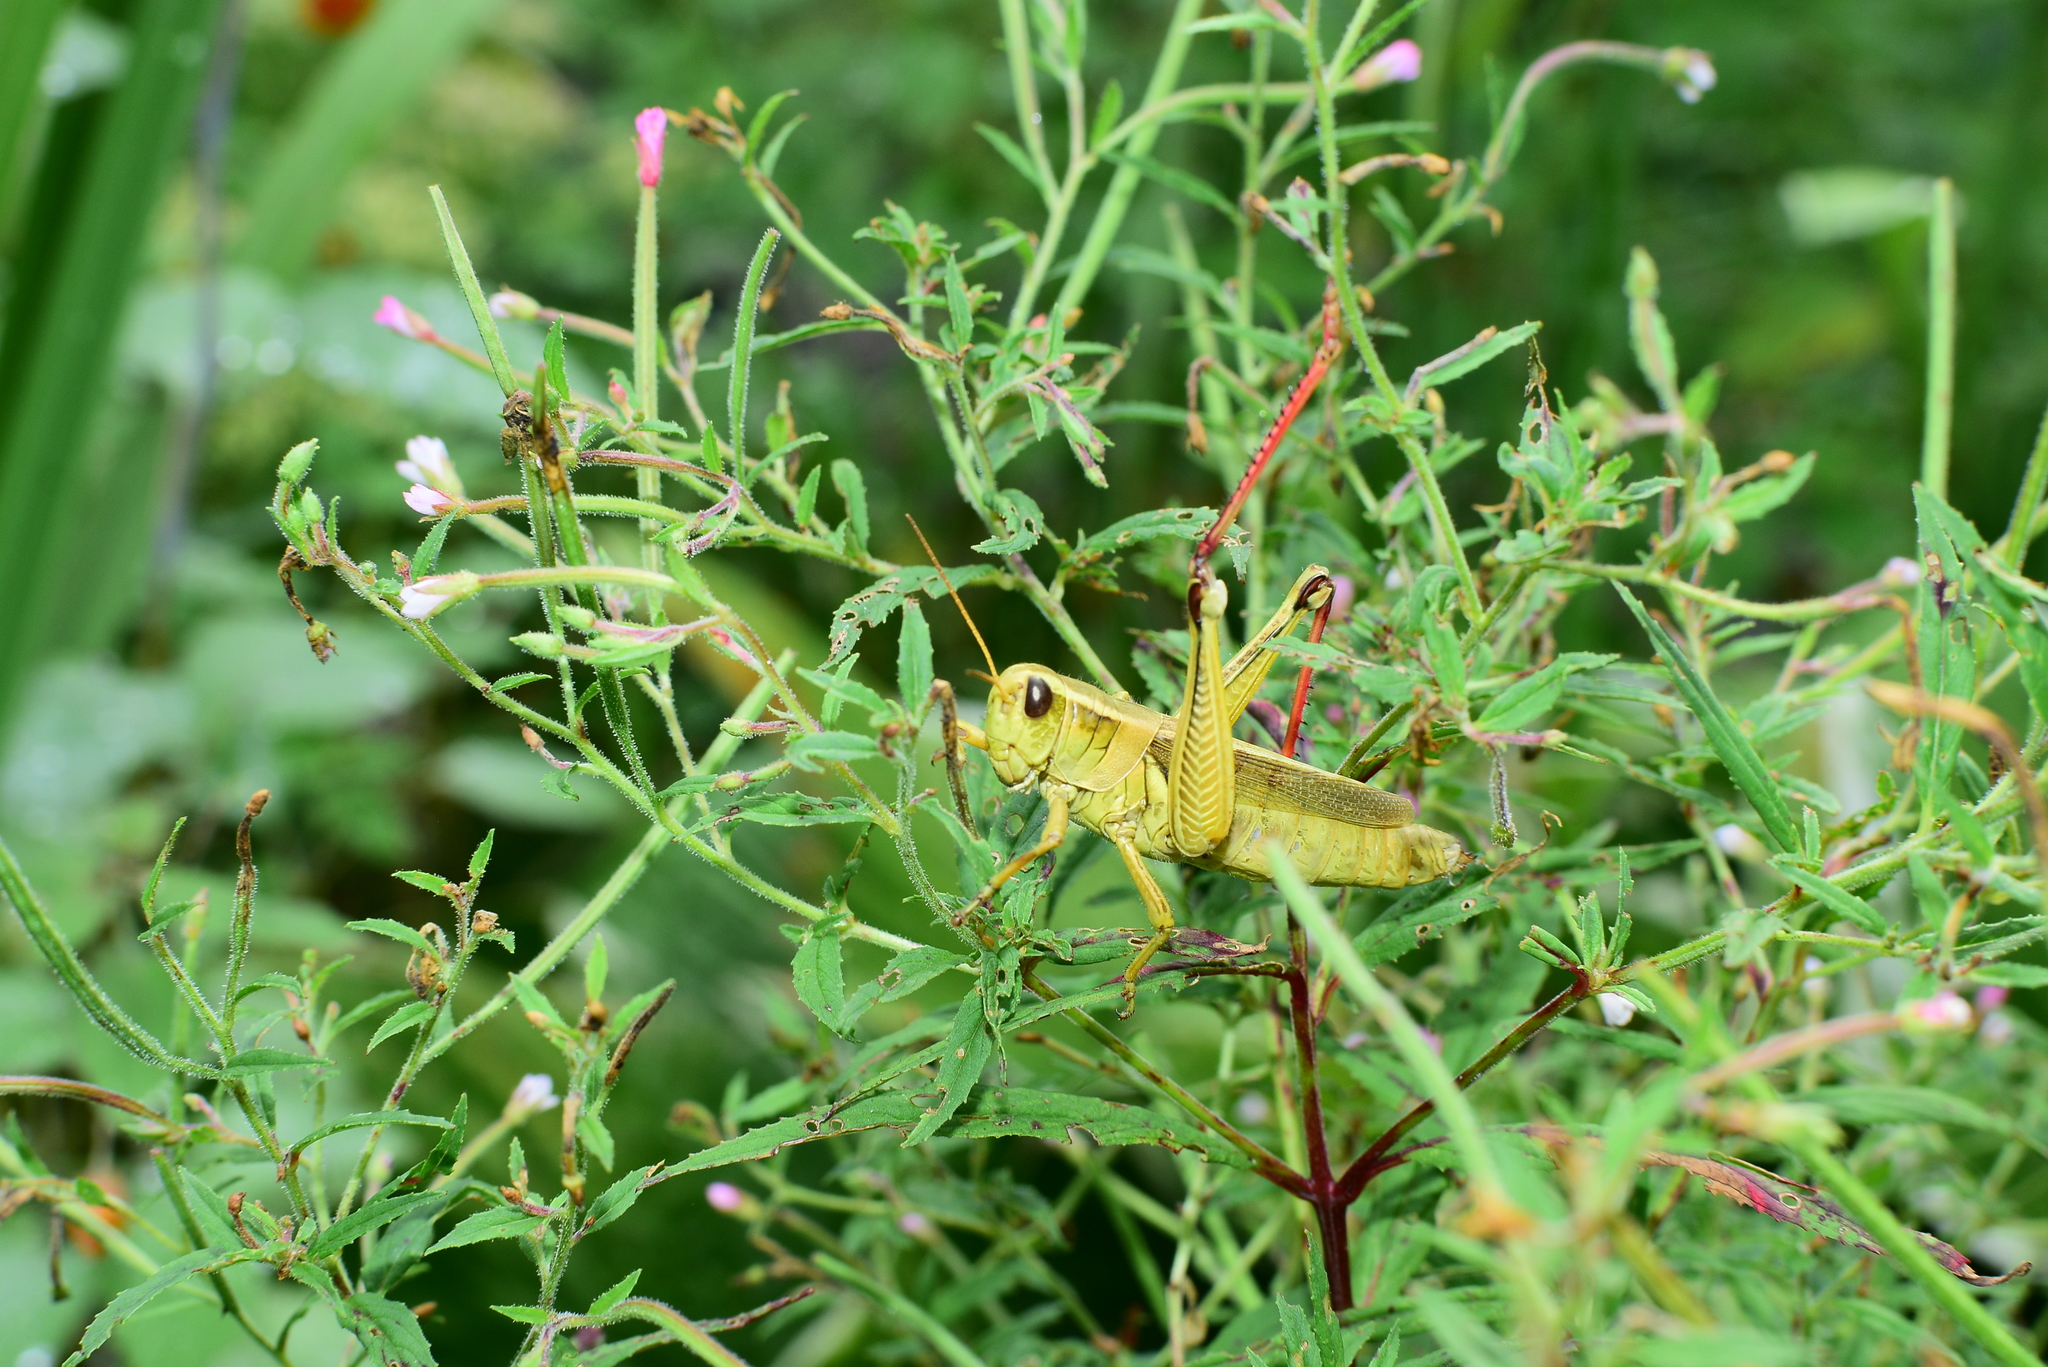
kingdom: Animalia
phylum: Arthropoda
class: Insecta
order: Orthoptera
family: Acrididae
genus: Melanoplus
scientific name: Melanoplus bivittatus
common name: Two-striped grasshopper
